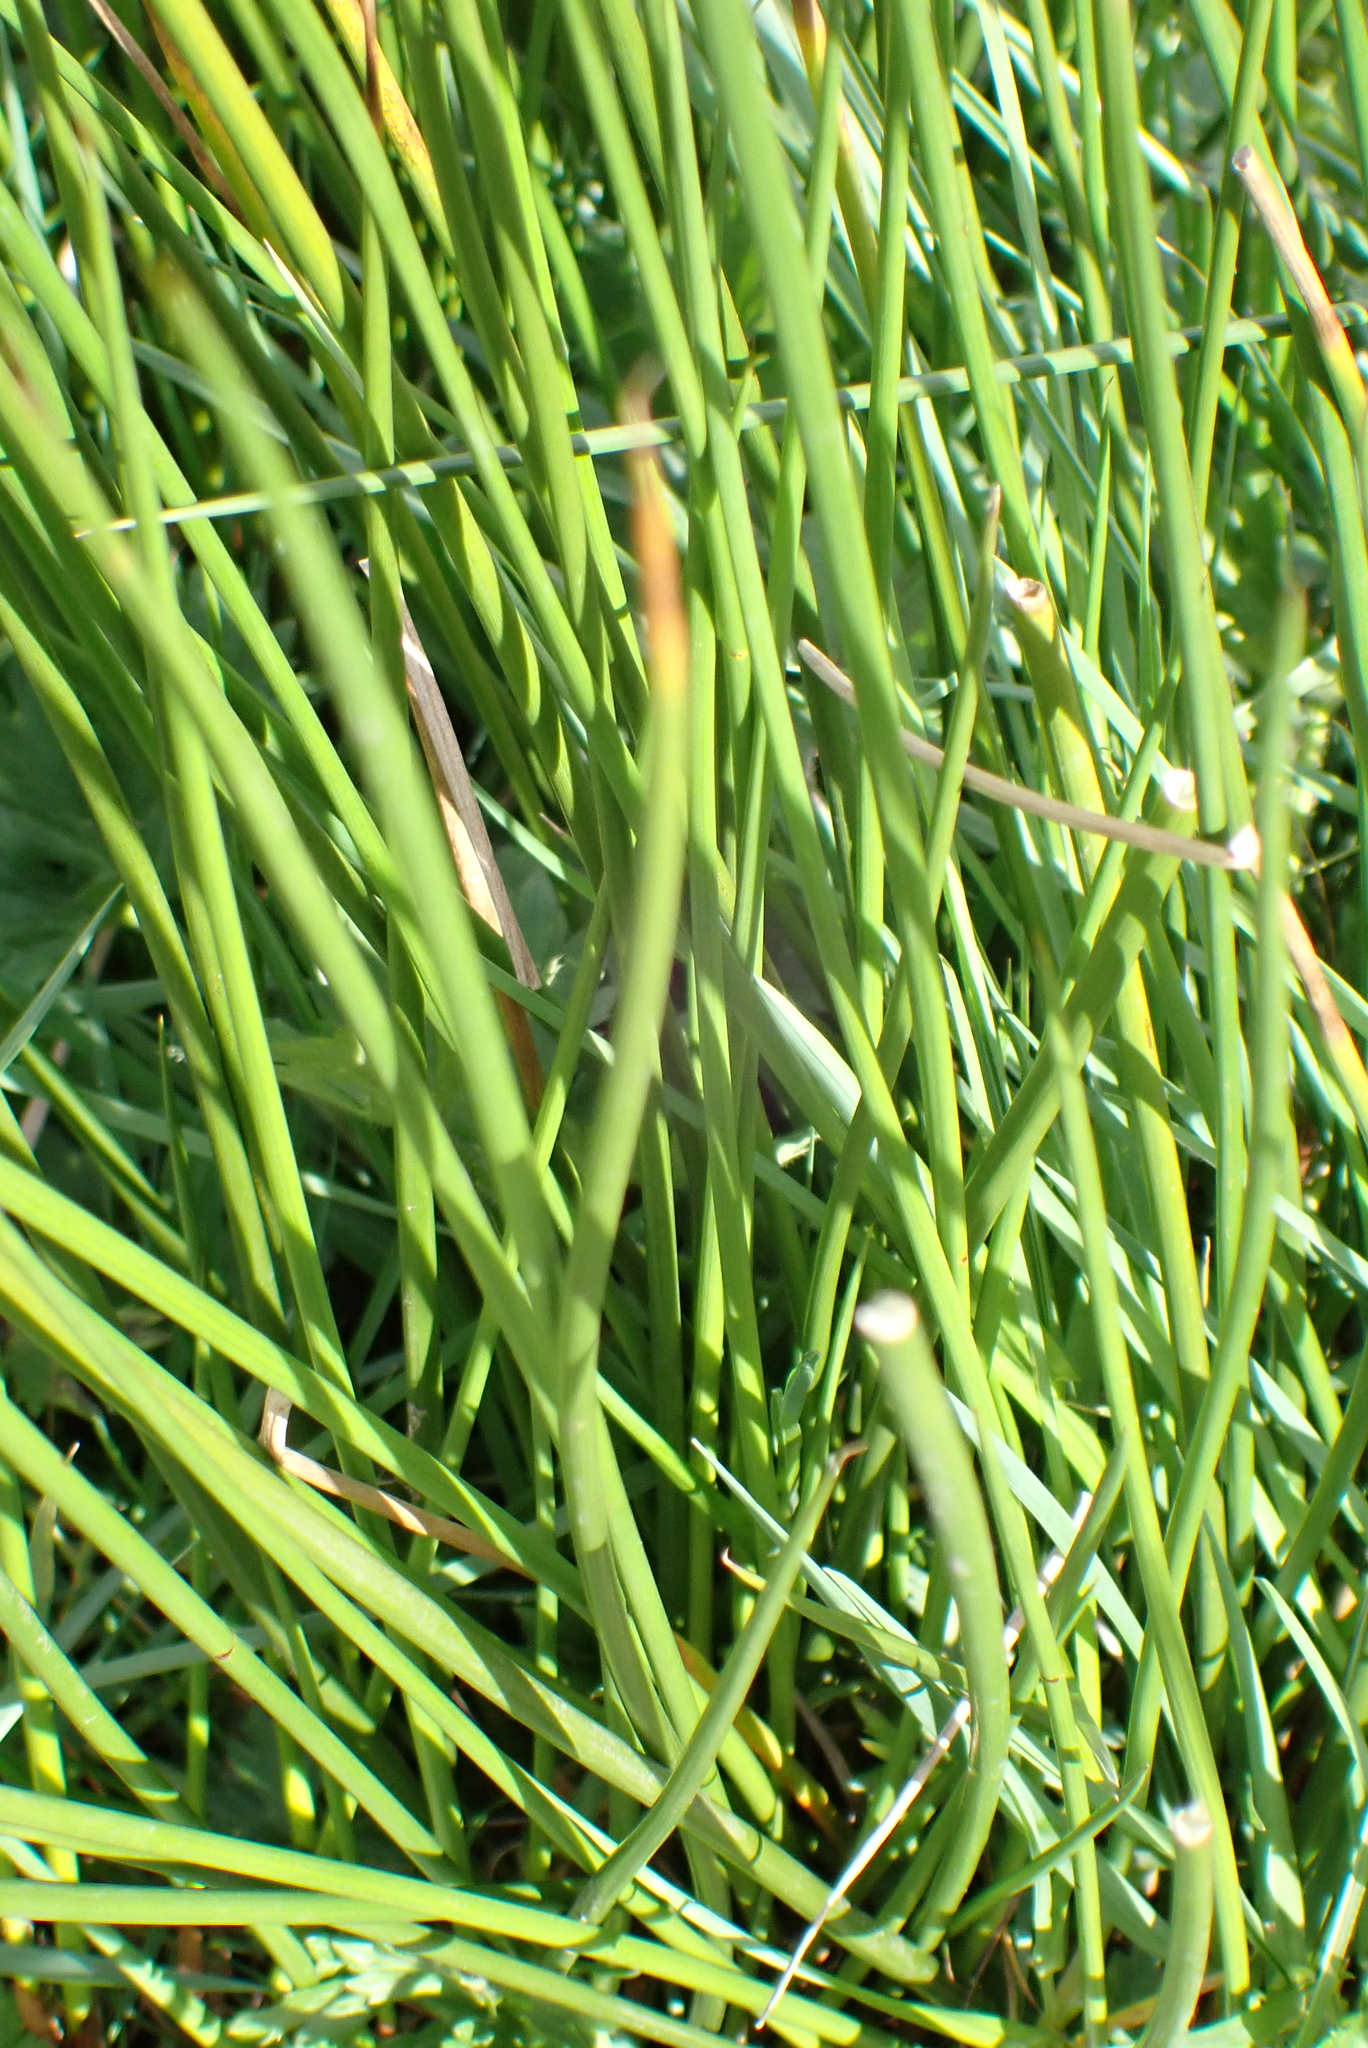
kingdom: Plantae
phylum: Tracheophyta
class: Liliopsida
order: Poales
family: Juncaceae
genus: Juncus
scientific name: Juncus effusus
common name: Soft rush
